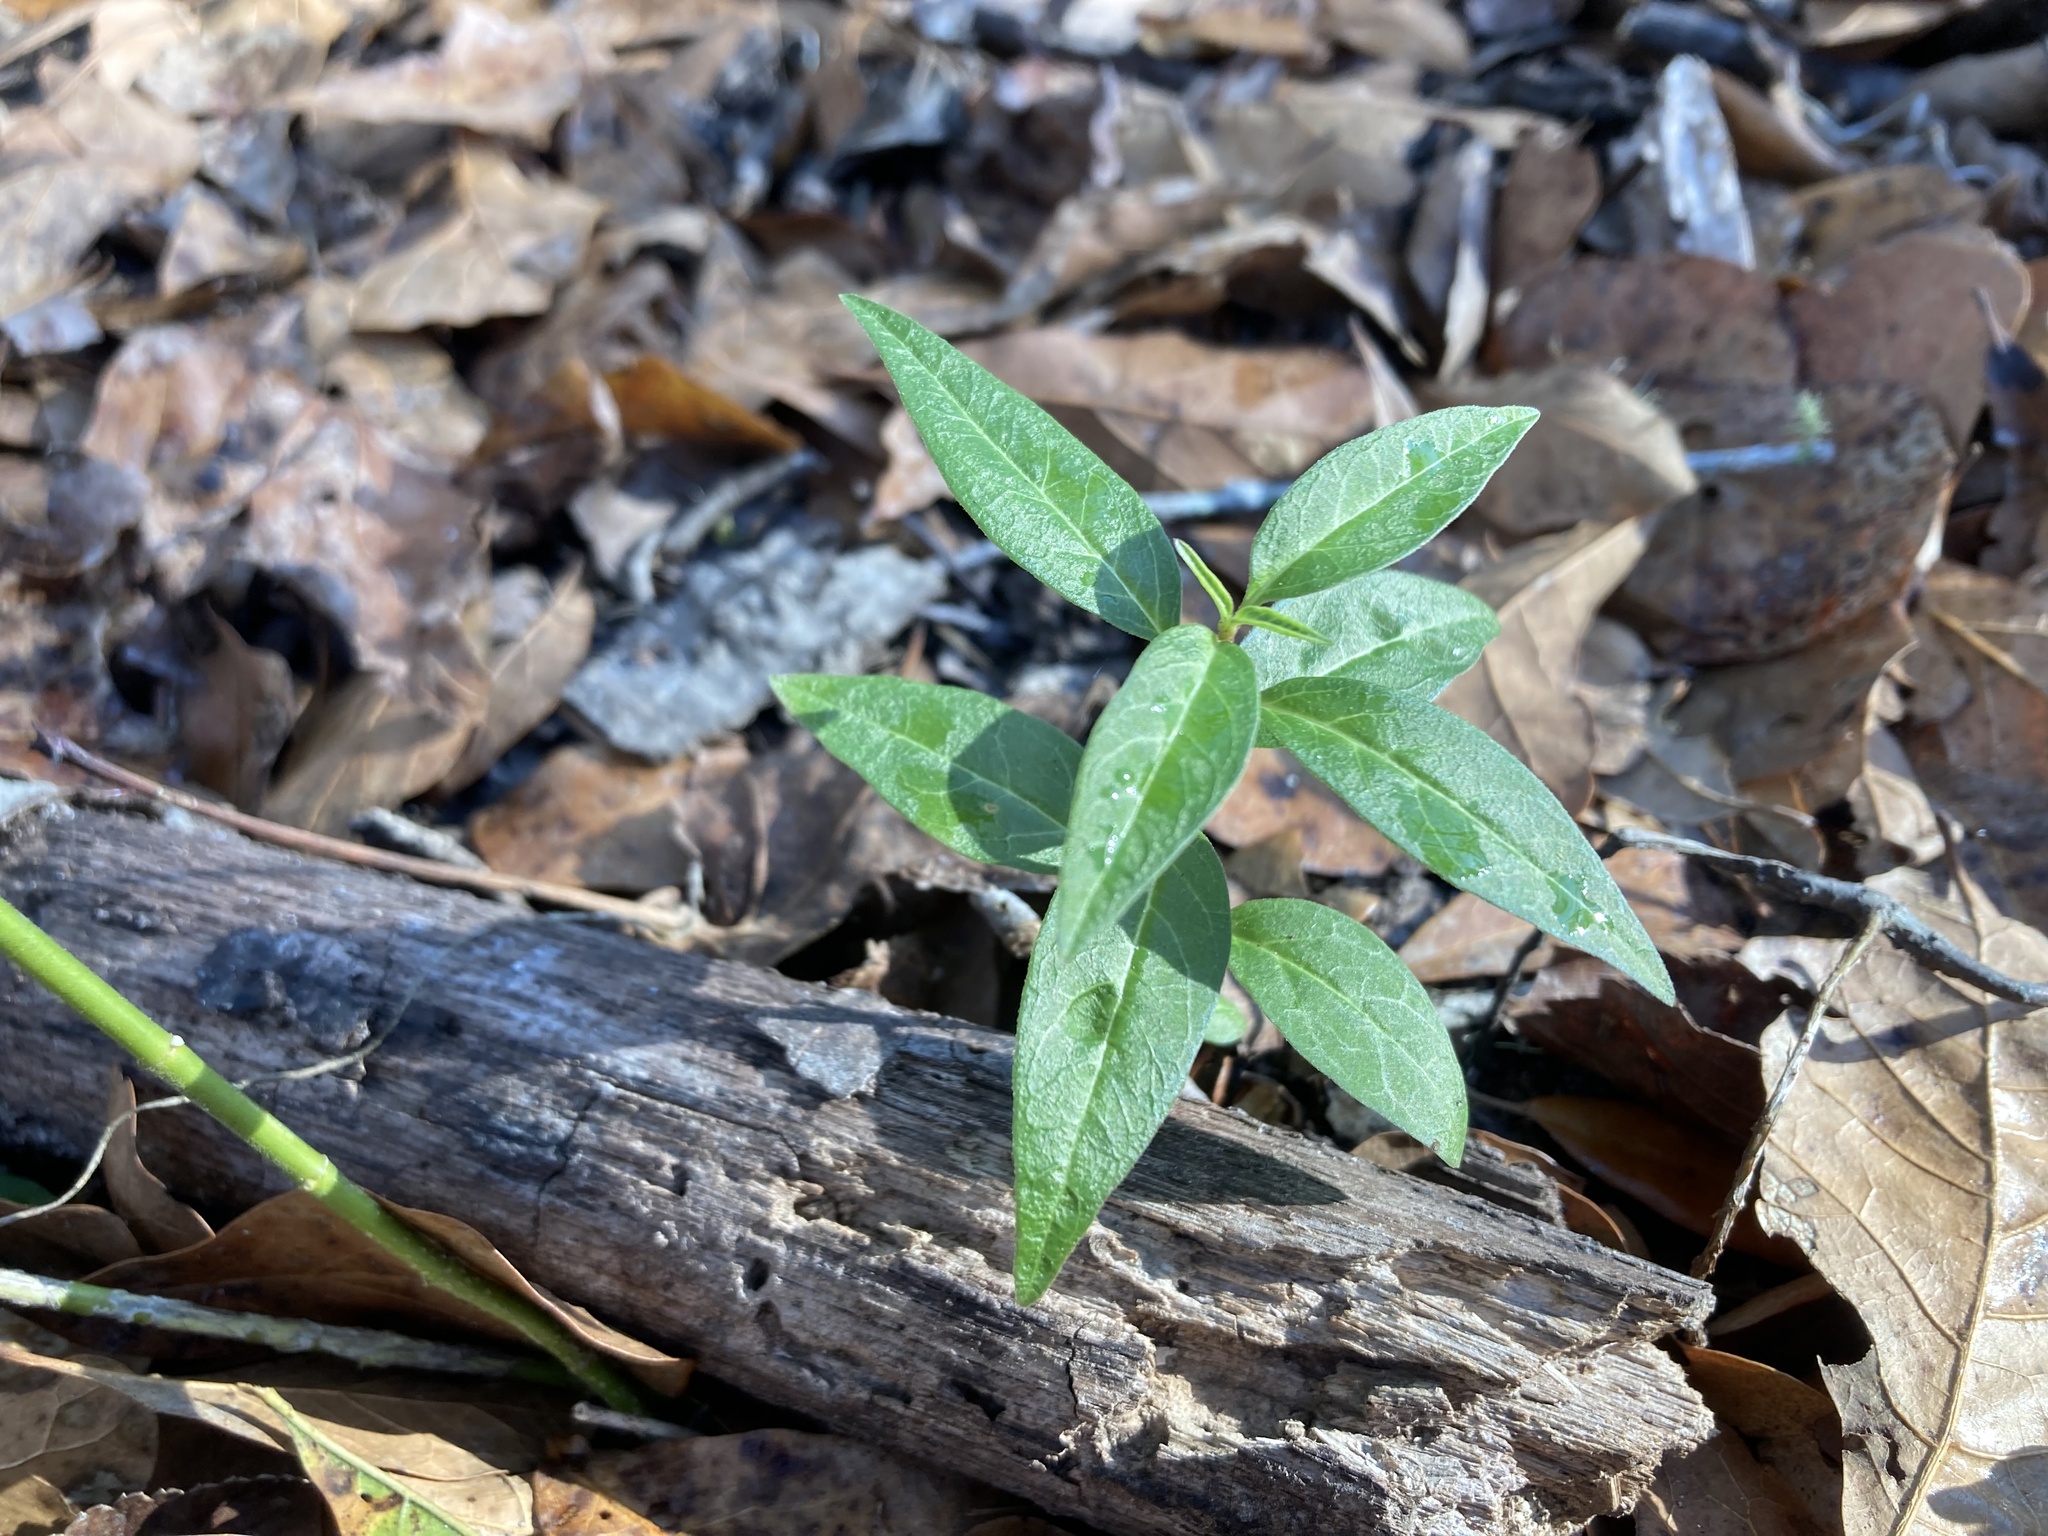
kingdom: Plantae
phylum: Tracheophyta
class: Magnoliopsida
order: Gentianales
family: Apocynaceae
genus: Asclepias
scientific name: Asclepias perennis
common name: Smooth-seed milkweed
